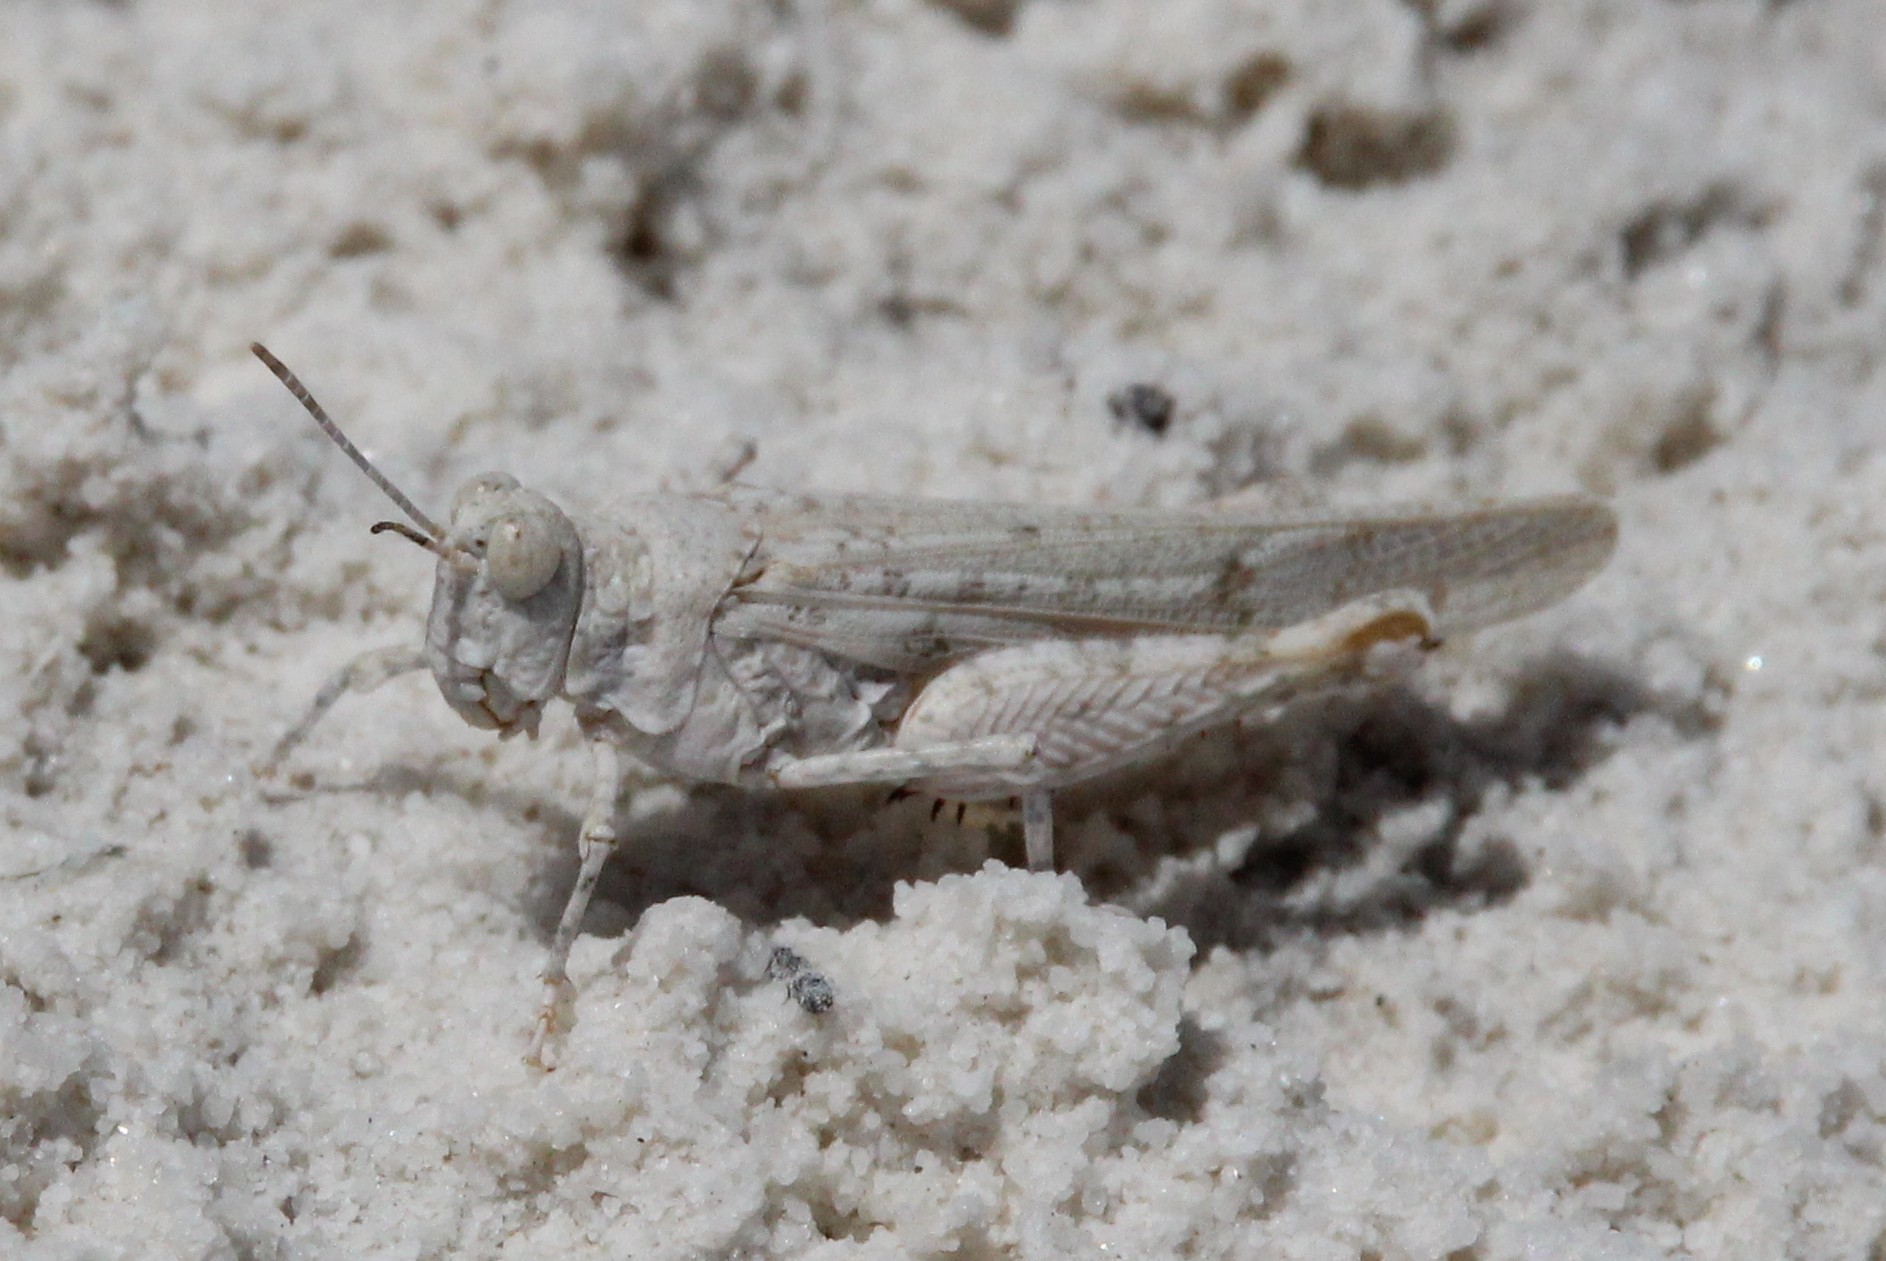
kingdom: Animalia
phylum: Arthropoda
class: Insecta
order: Orthoptera
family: Acrididae
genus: Cibolacris
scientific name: Cibolacris samalayucae
